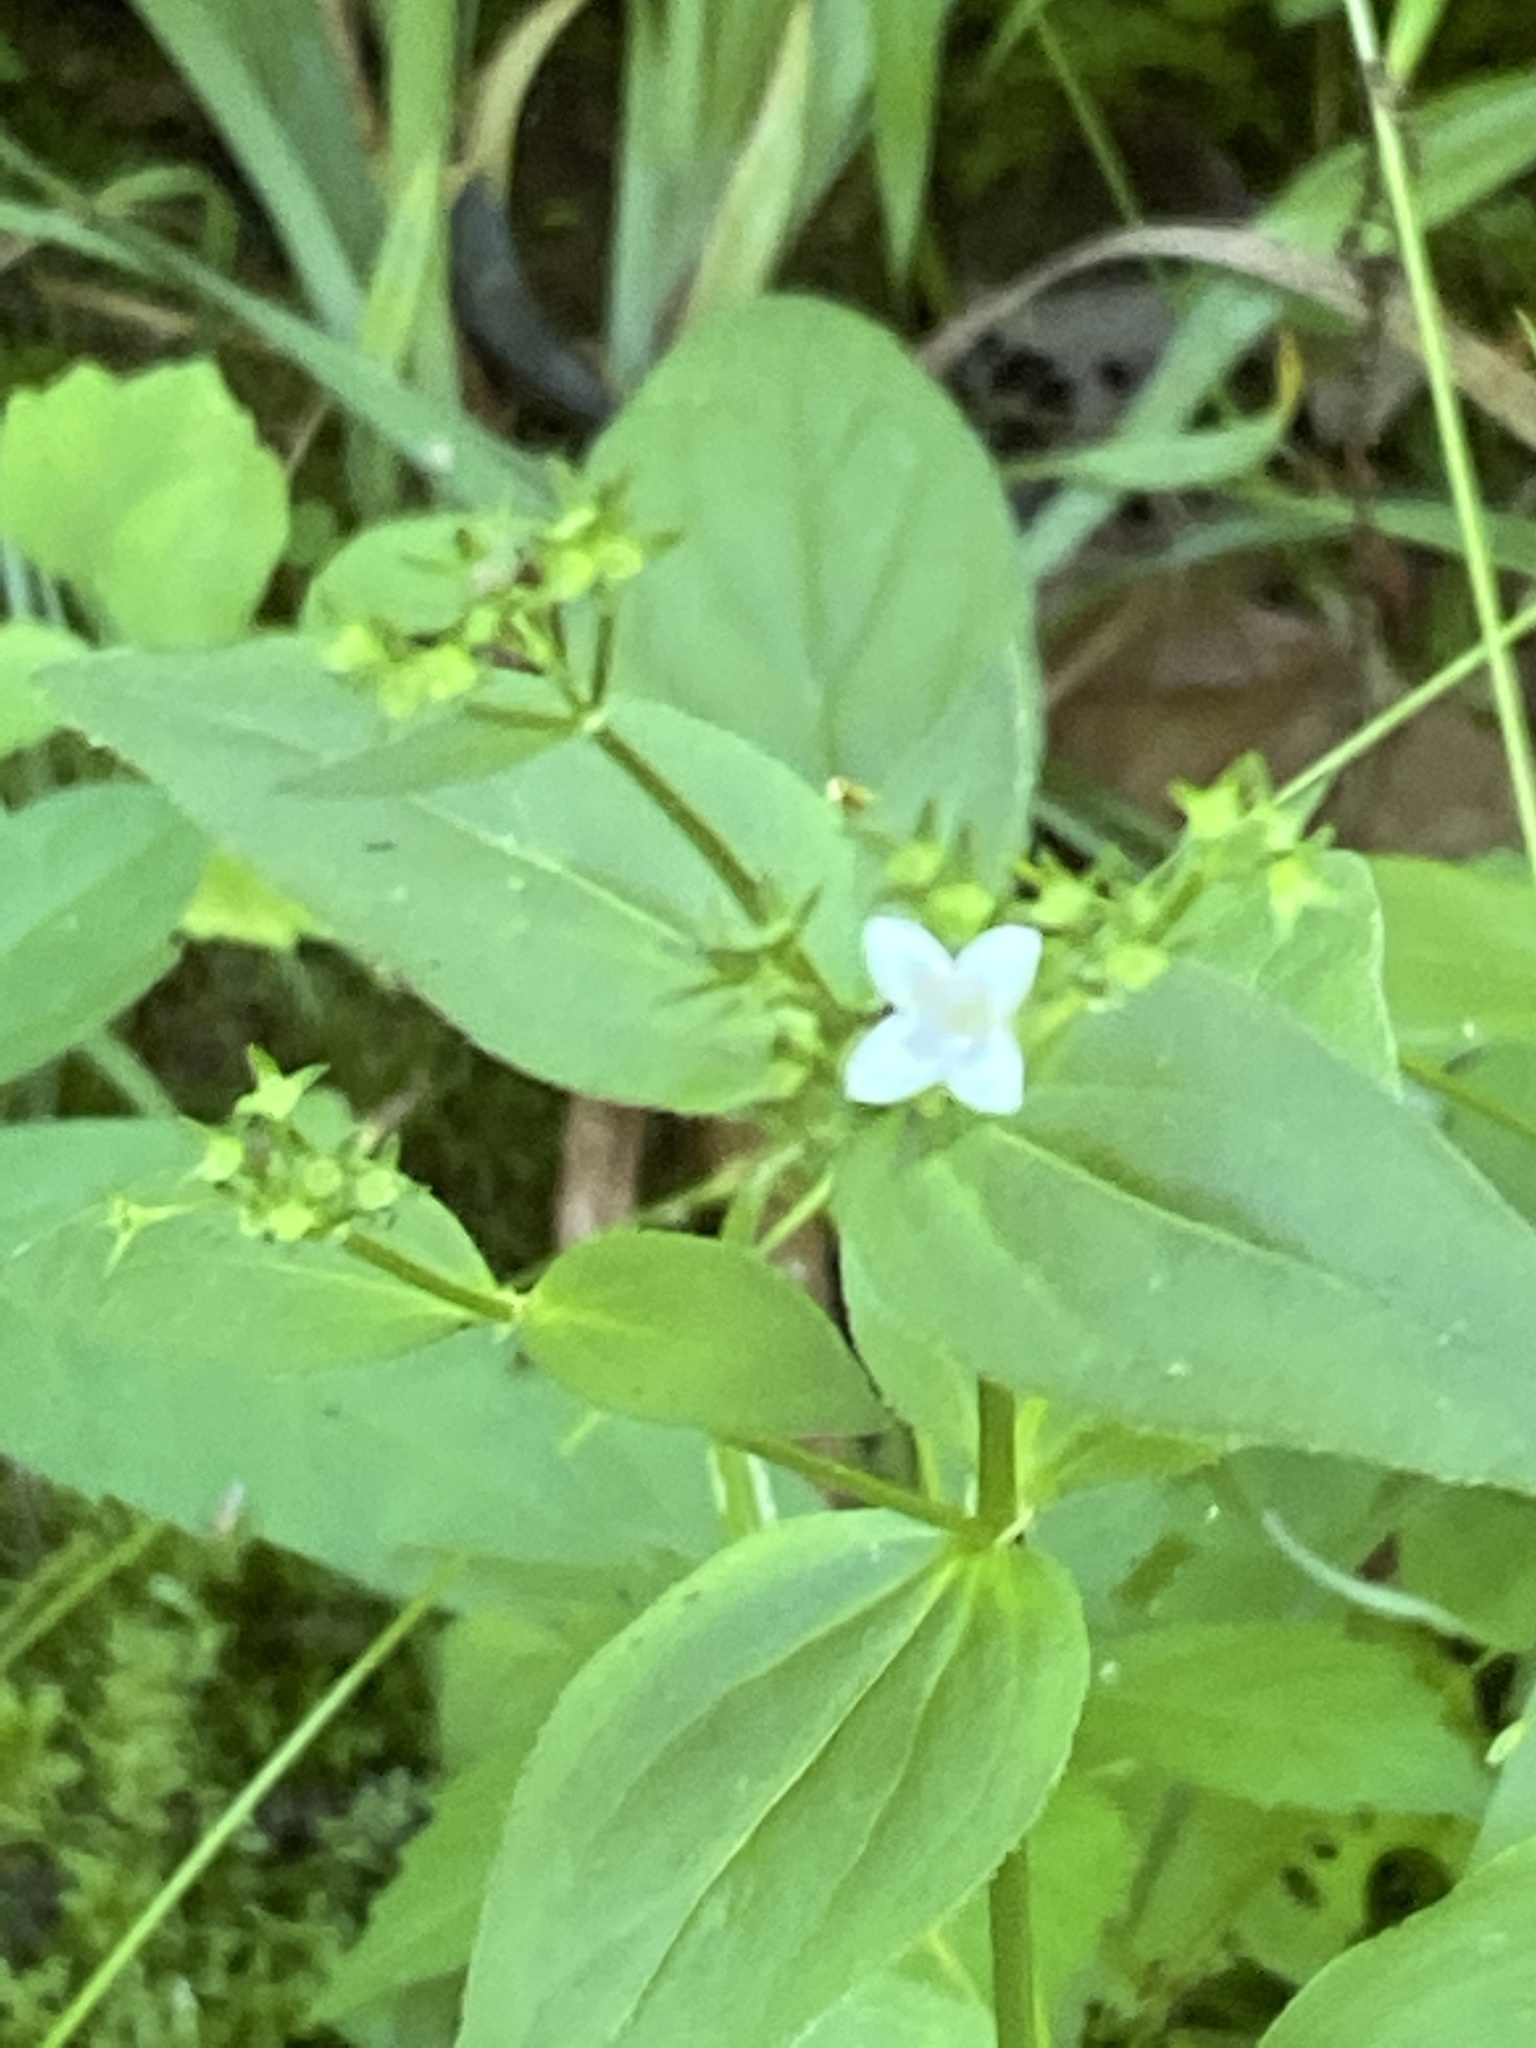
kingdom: Plantae
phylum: Tracheophyta
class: Magnoliopsida
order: Gentianales
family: Rubiaceae
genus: Houstonia
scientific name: Houstonia purpurea
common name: Summer bluet
